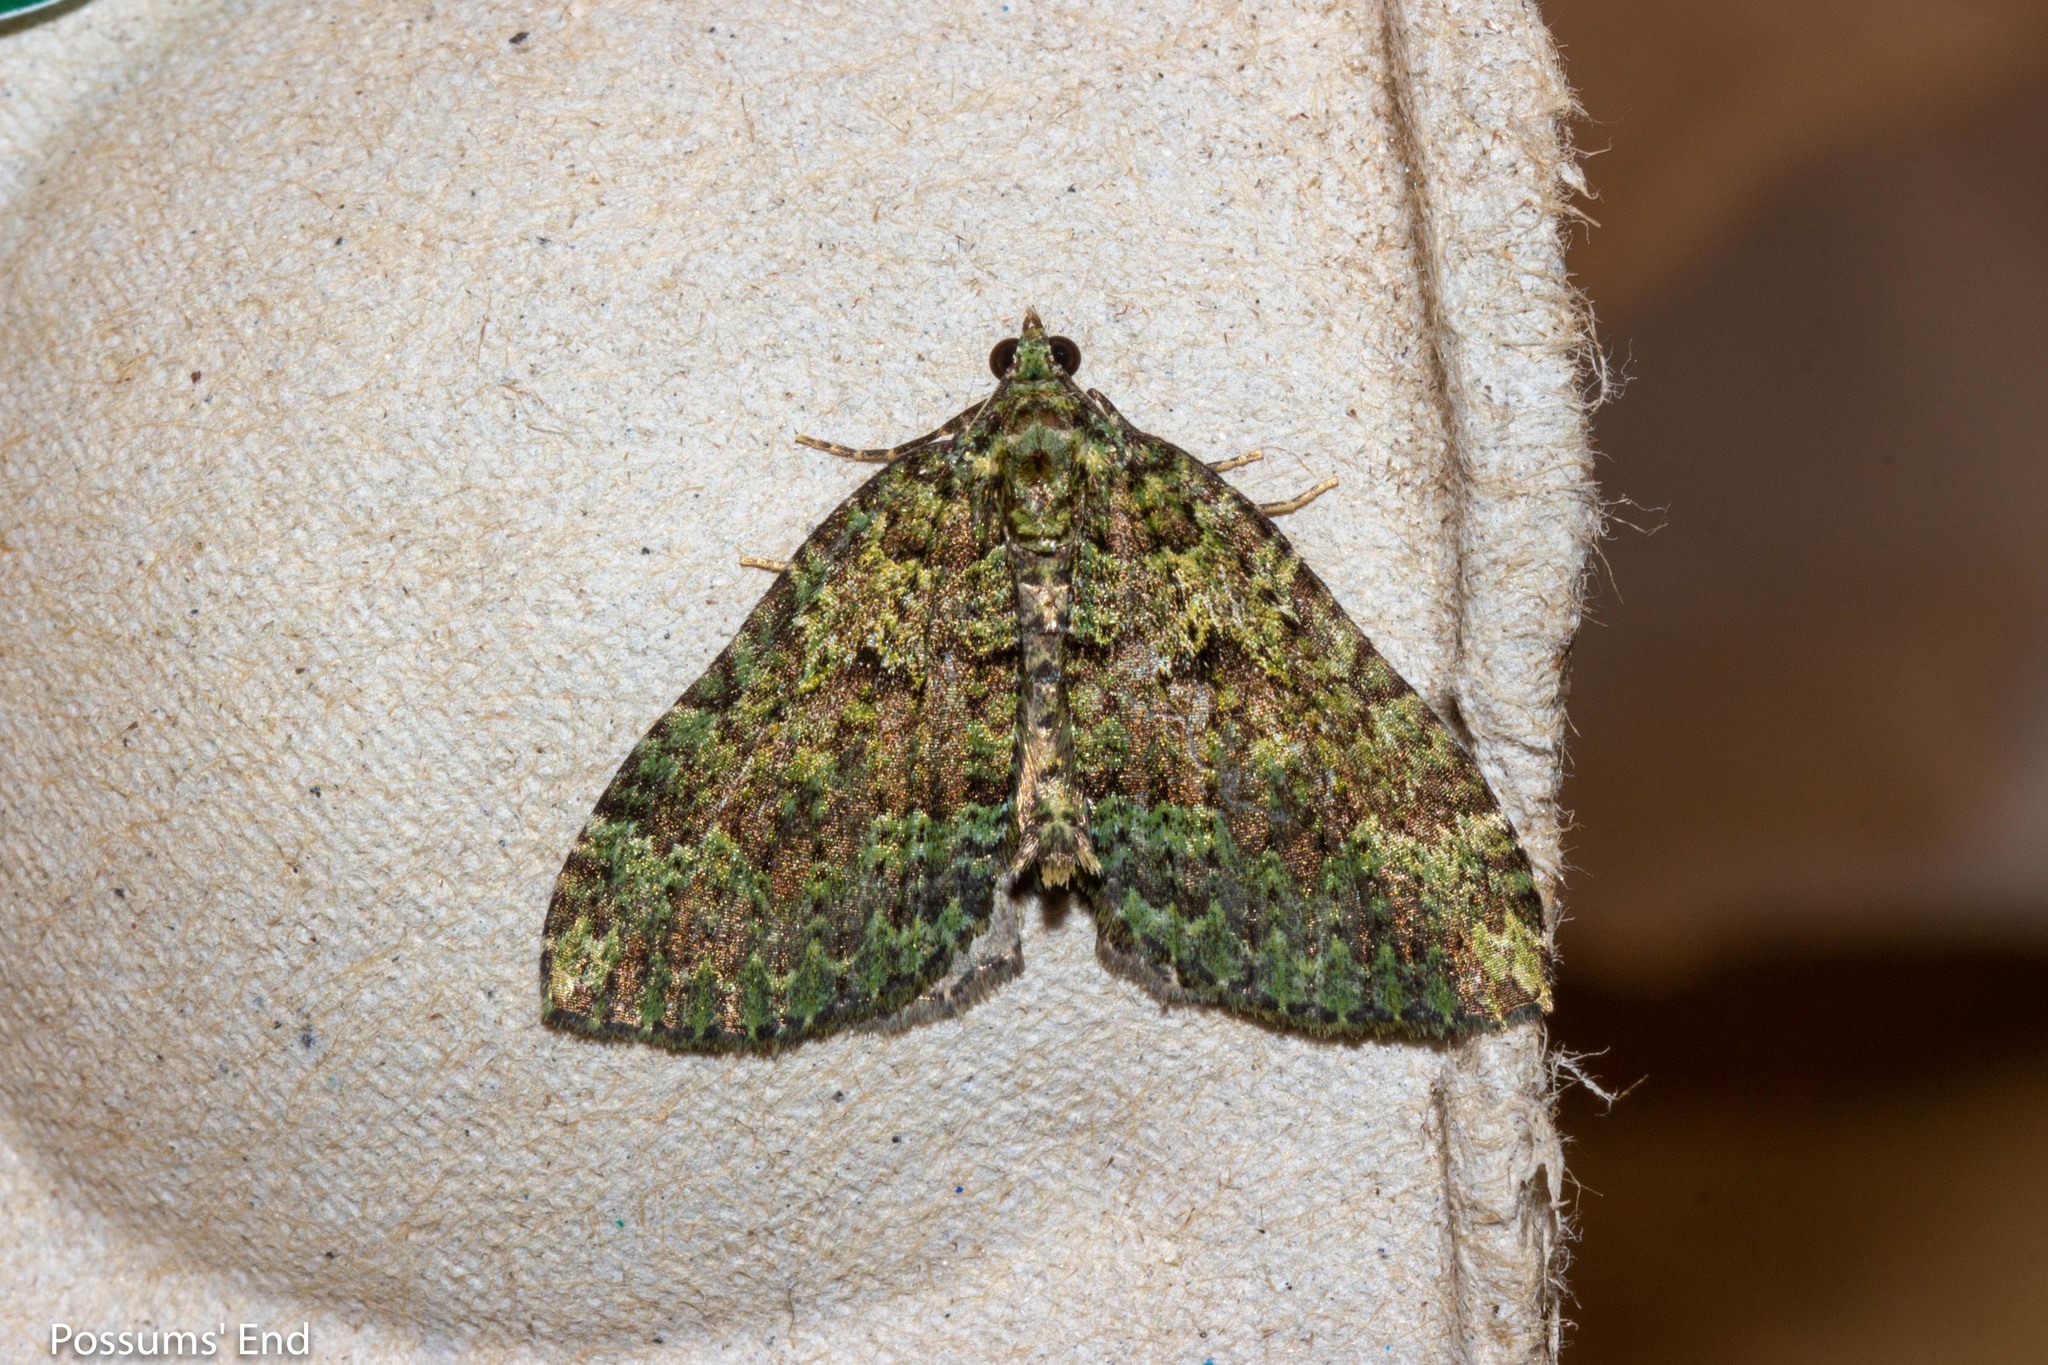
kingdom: Animalia
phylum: Arthropoda
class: Insecta
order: Lepidoptera
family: Geometridae
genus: Austrocidaria
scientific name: Austrocidaria callichlora
